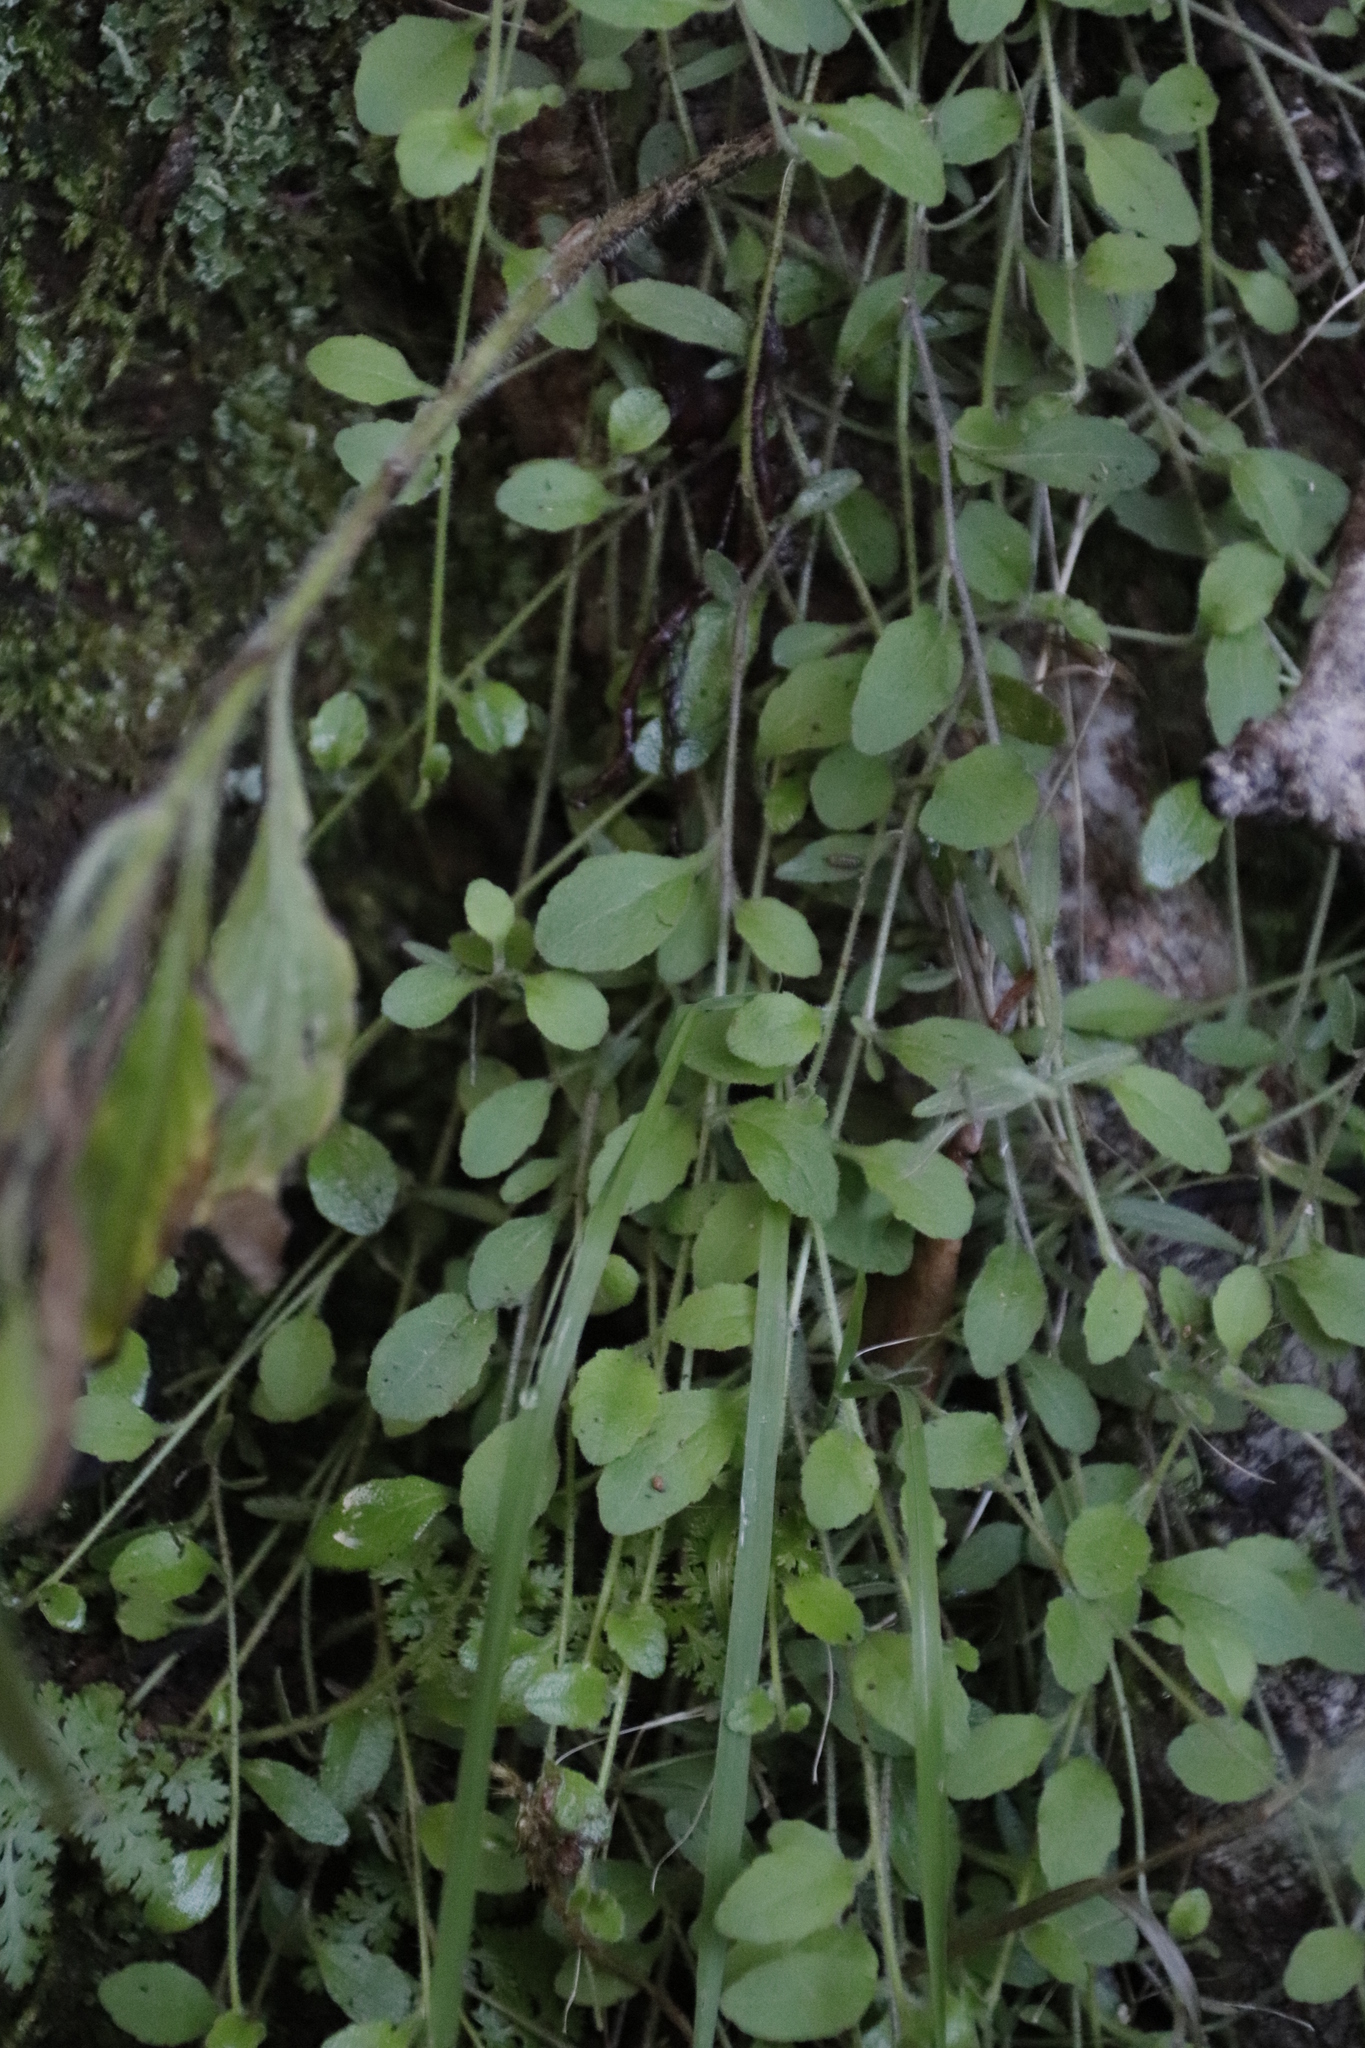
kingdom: Plantae
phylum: Tracheophyta
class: Magnoliopsida
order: Asterales
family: Campanulaceae
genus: Unigenes
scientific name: Unigenes humifusa
